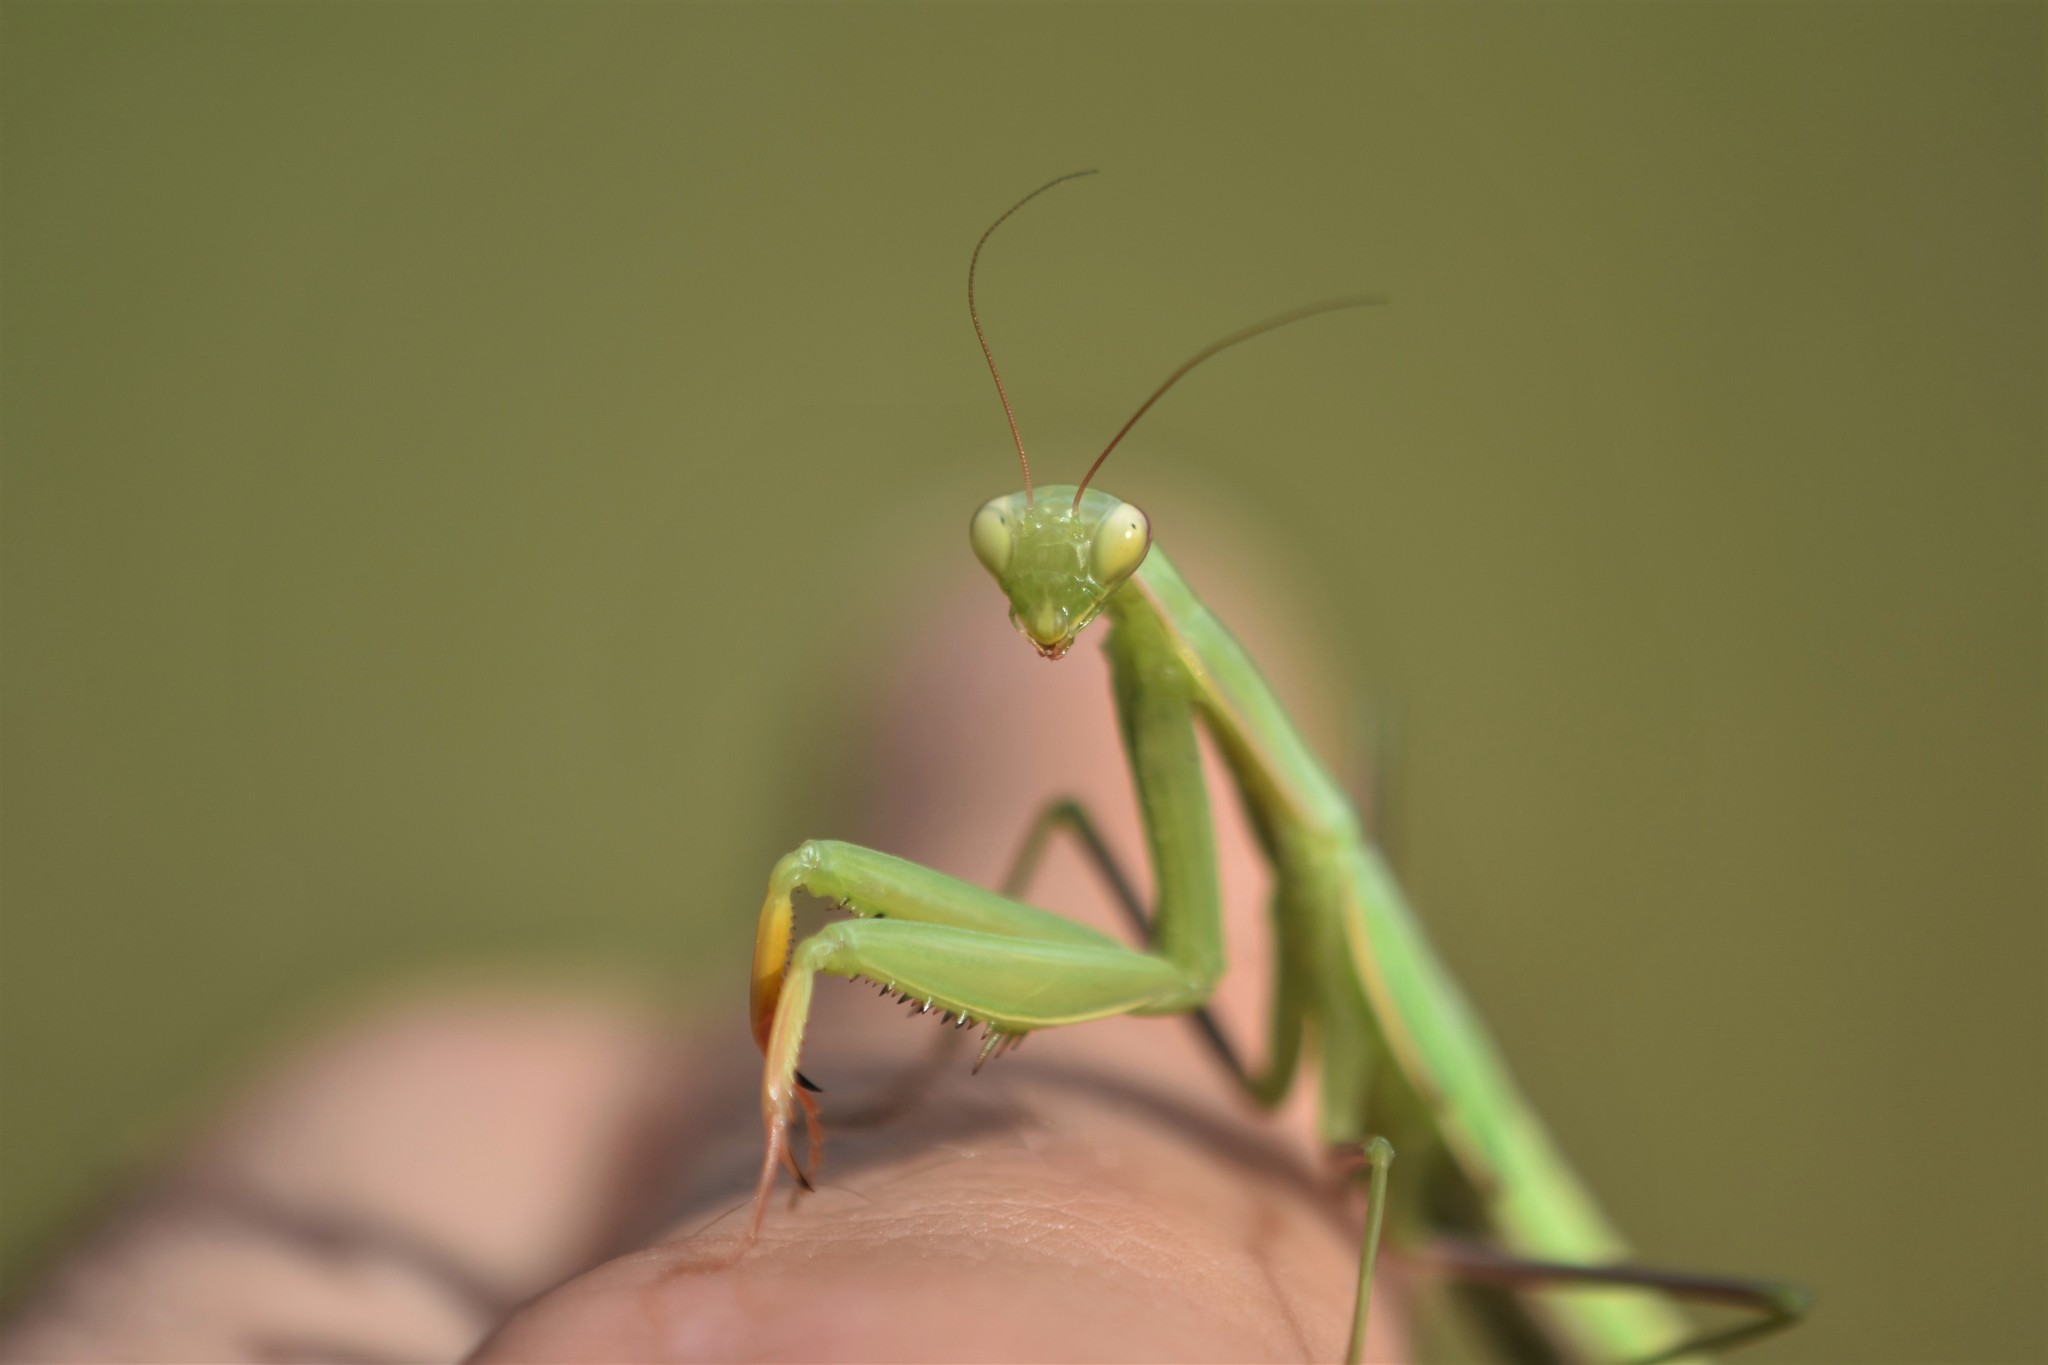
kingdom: Animalia
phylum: Arthropoda
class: Insecta
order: Mantodea
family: Mantidae
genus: Mantis
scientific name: Mantis religiosa
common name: Praying mantis
